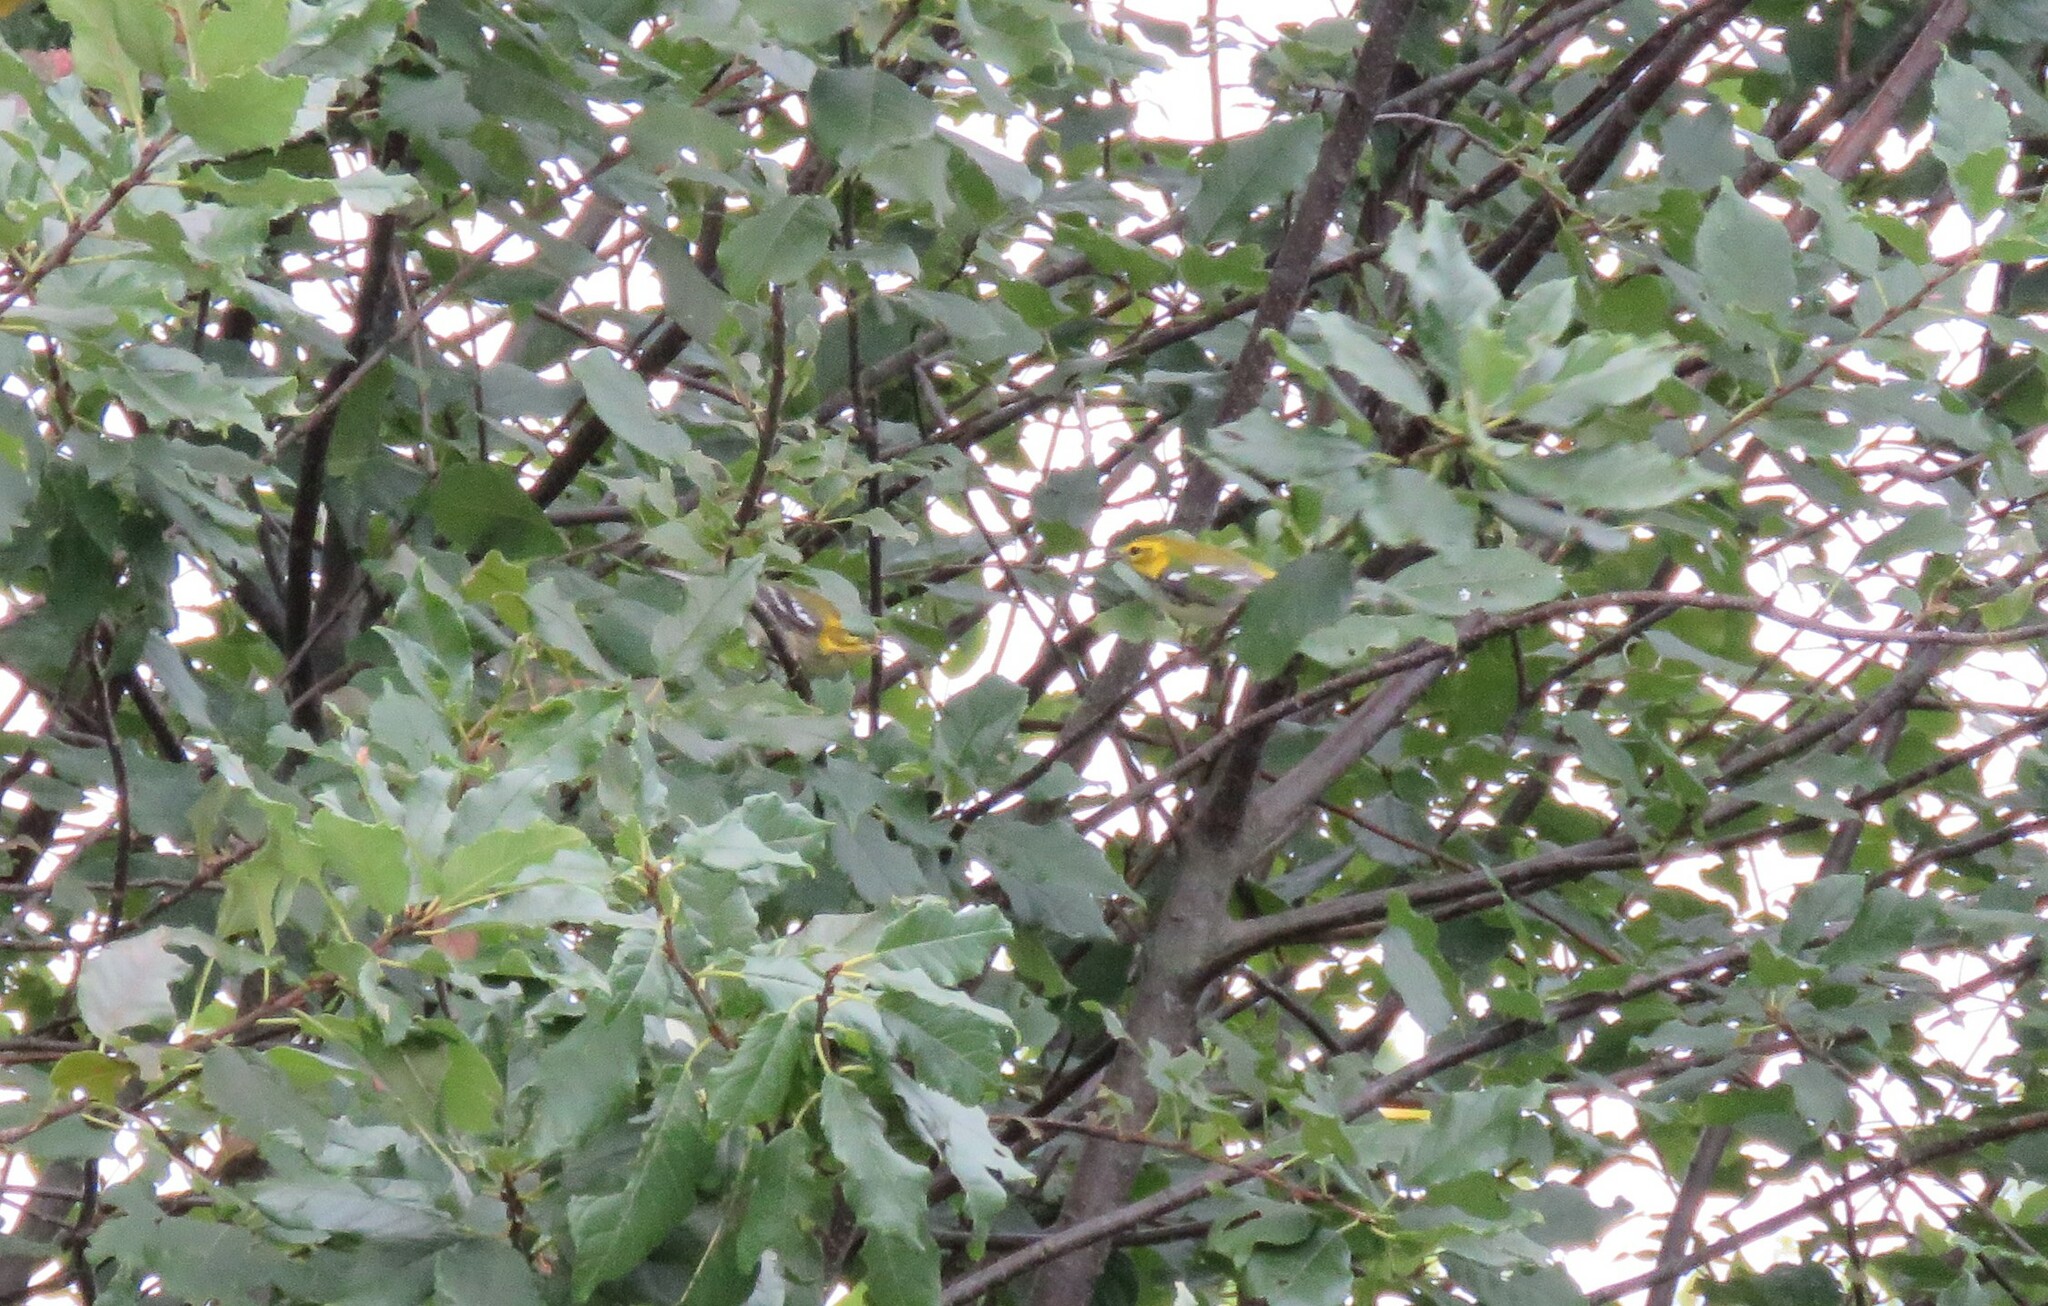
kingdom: Animalia
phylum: Chordata
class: Aves
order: Passeriformes
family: Parulidae
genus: Setophaga
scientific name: Setophaga fusca
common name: Blackburnian warbler
